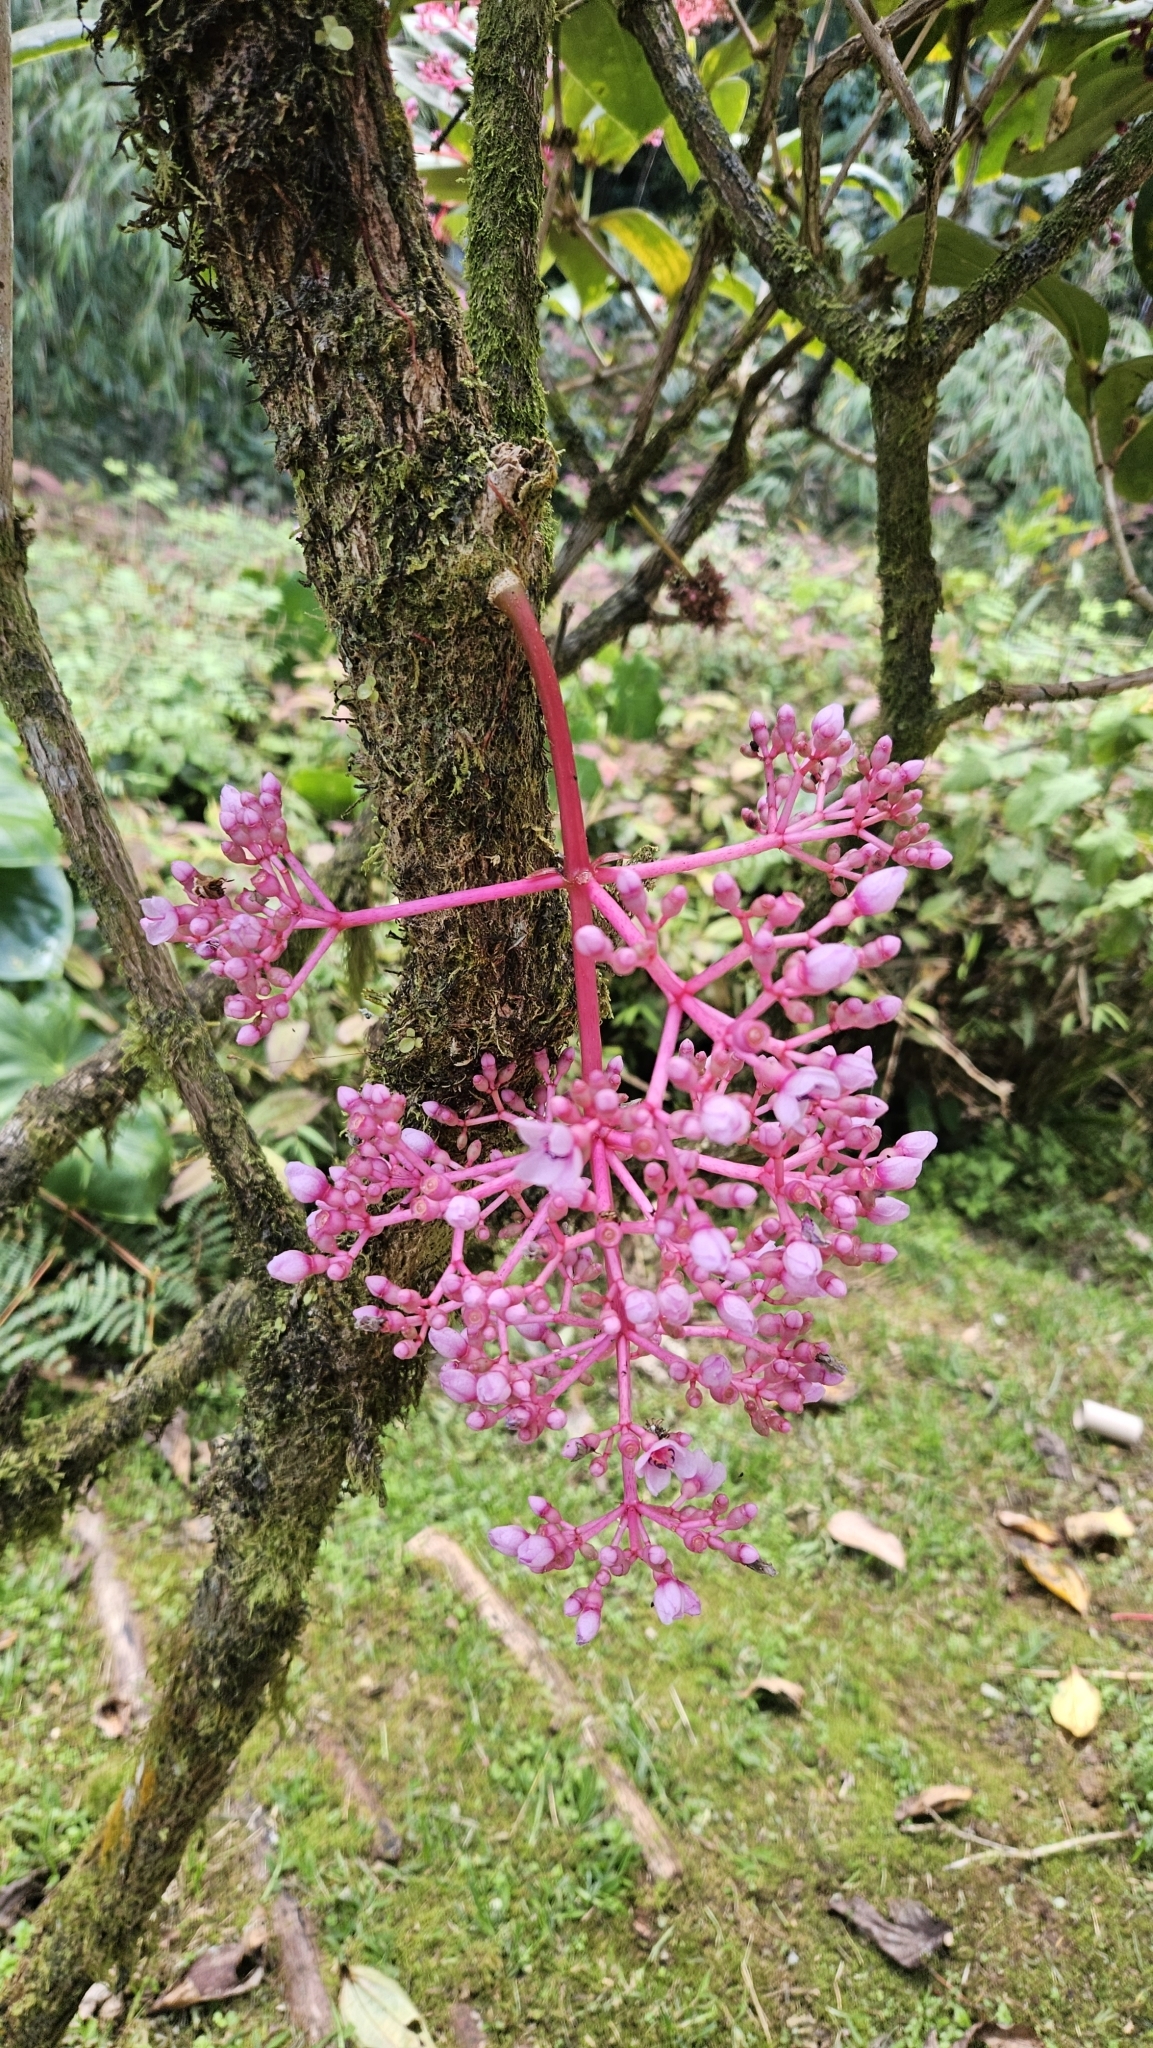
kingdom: Plantae
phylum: Tracheophyta
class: Magnoliopsida
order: Myrtales
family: Melastomataceae
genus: Medinilla
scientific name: Medinilla speciosa
